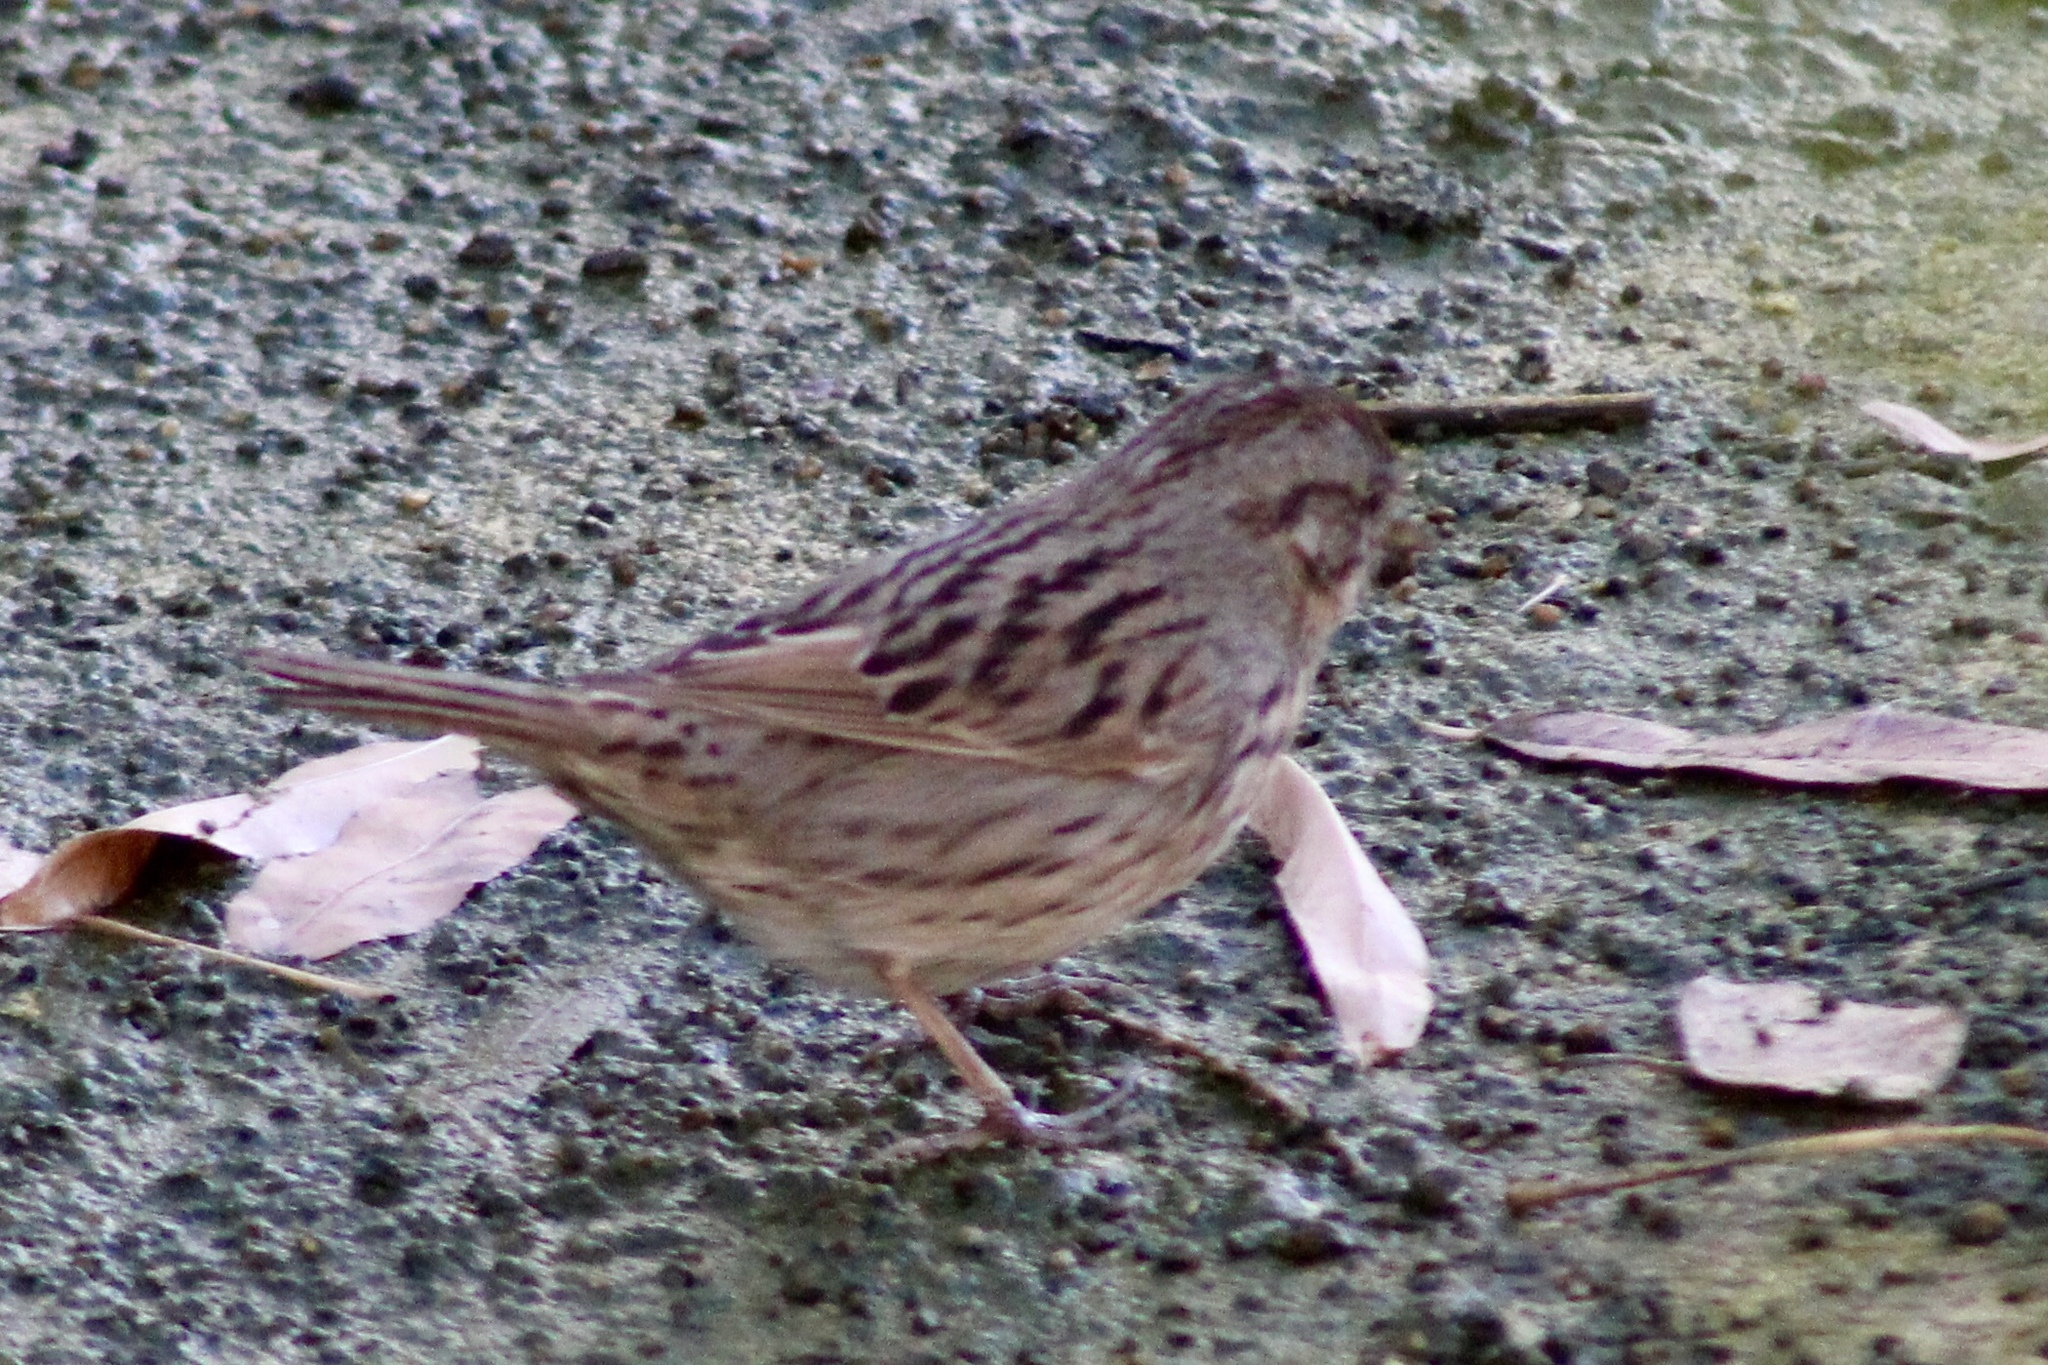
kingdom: Animalia
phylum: Chordata
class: Aves
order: Passeriformes
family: Passerellidae
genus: Melospiza
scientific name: Melospiza lincolnii
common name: Lincoln's sparrow
